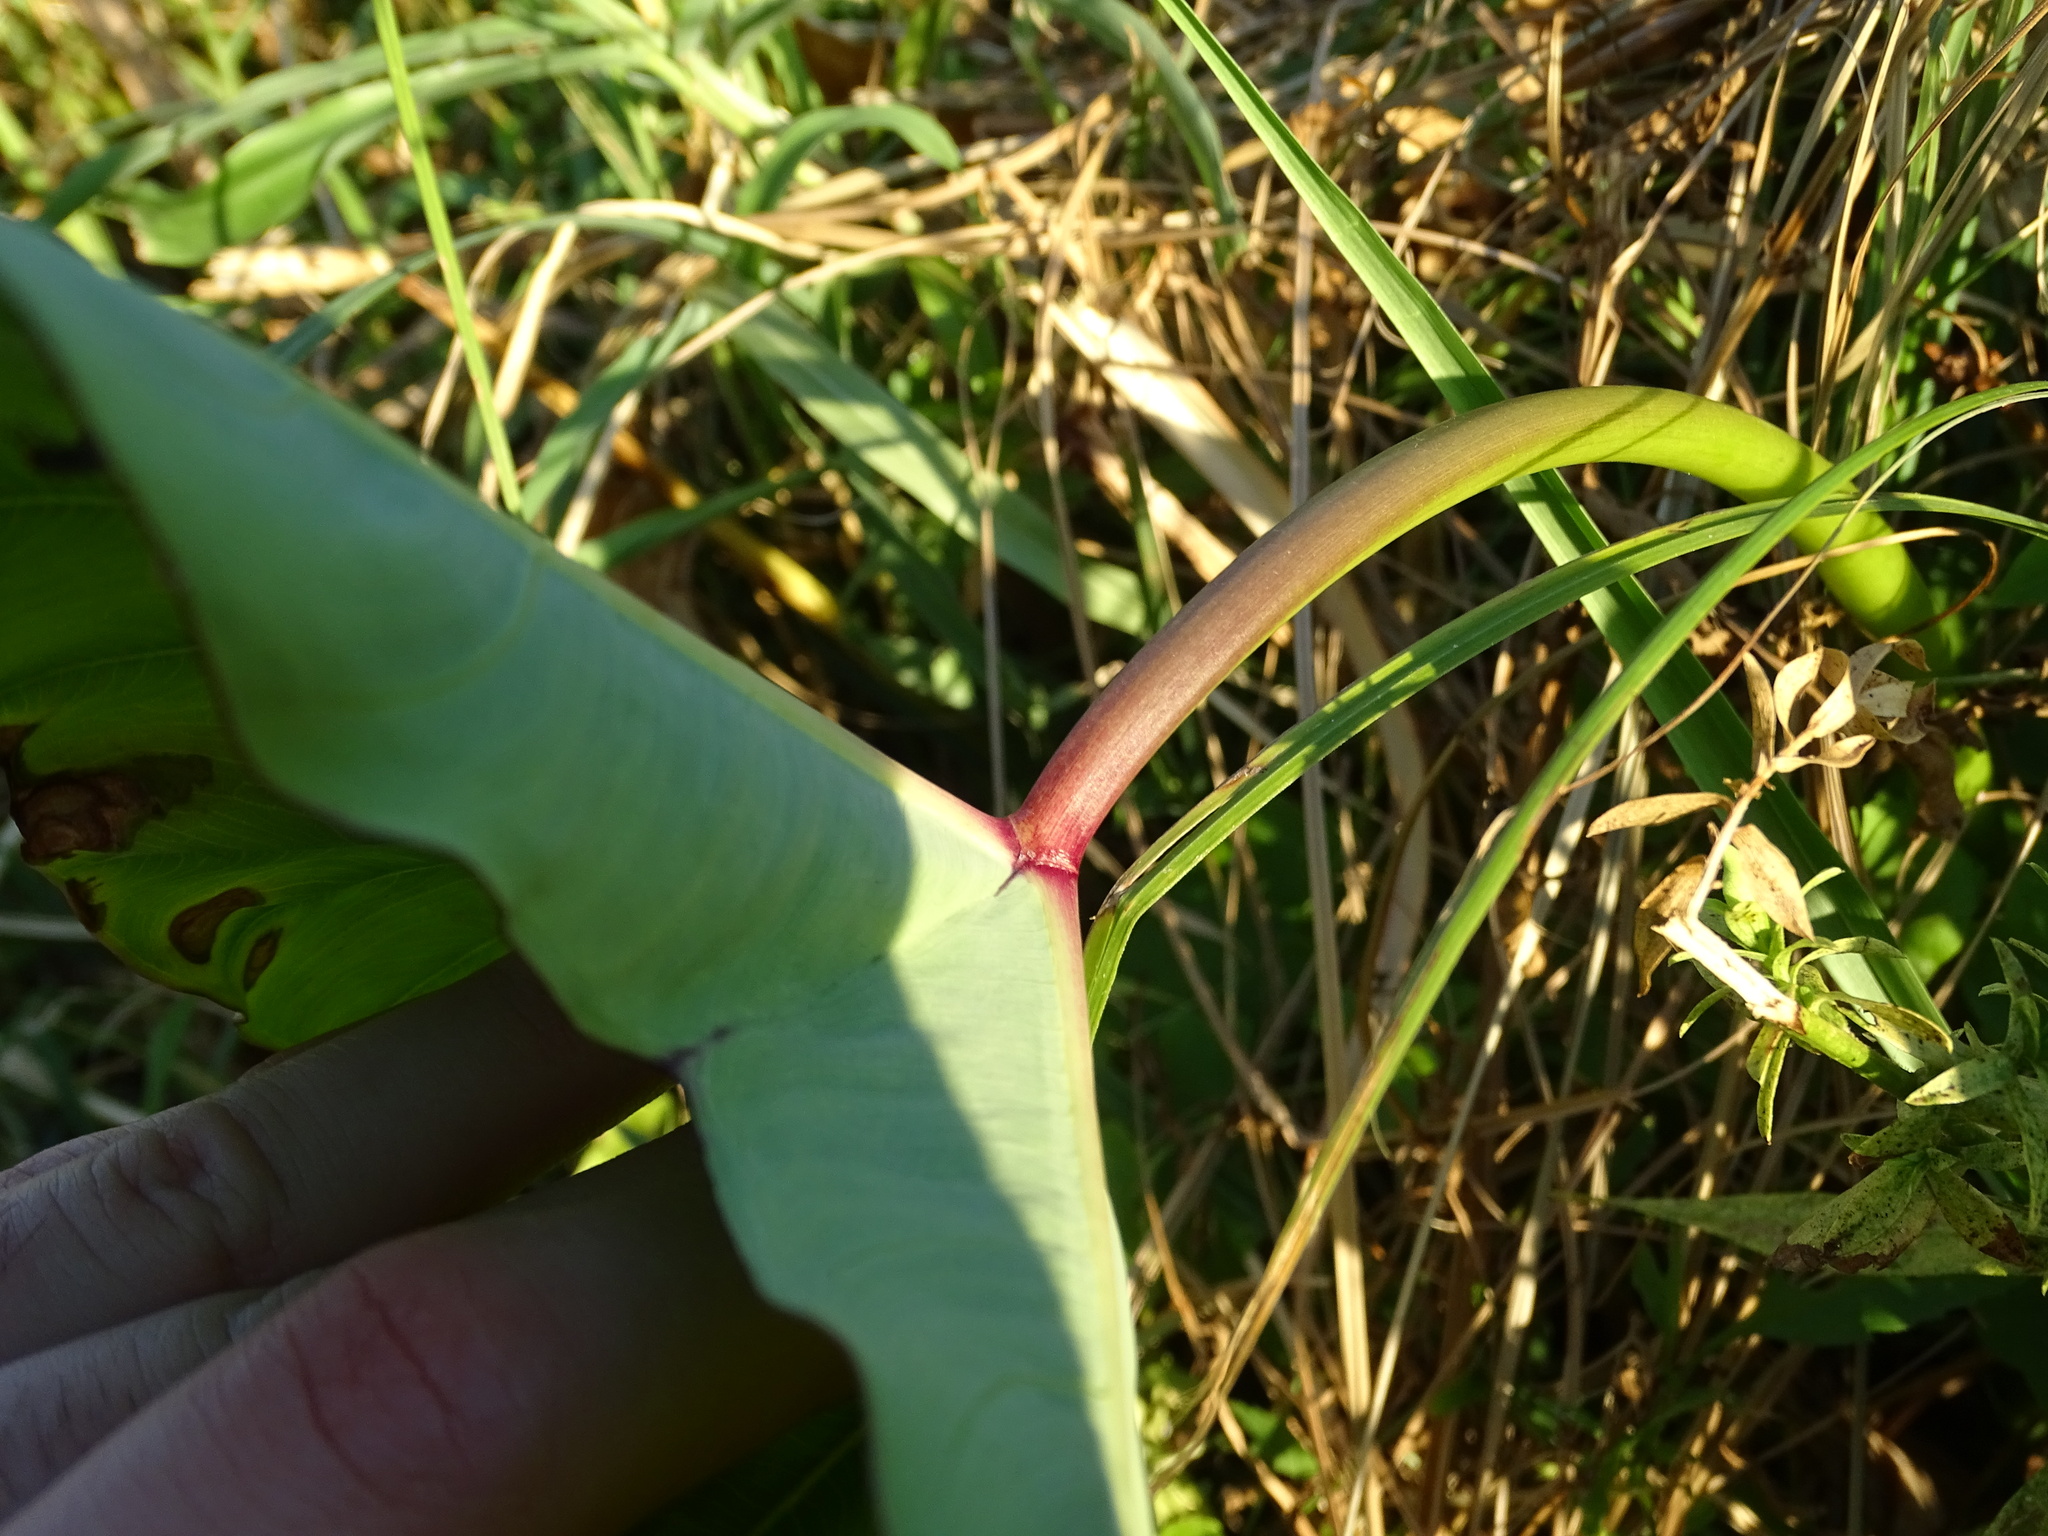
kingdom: Plantae
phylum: Tracheophyta
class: Liliopsida
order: Alismatales
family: Araceae
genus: Colocasia
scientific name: Colocasia esculenta
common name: Taro
